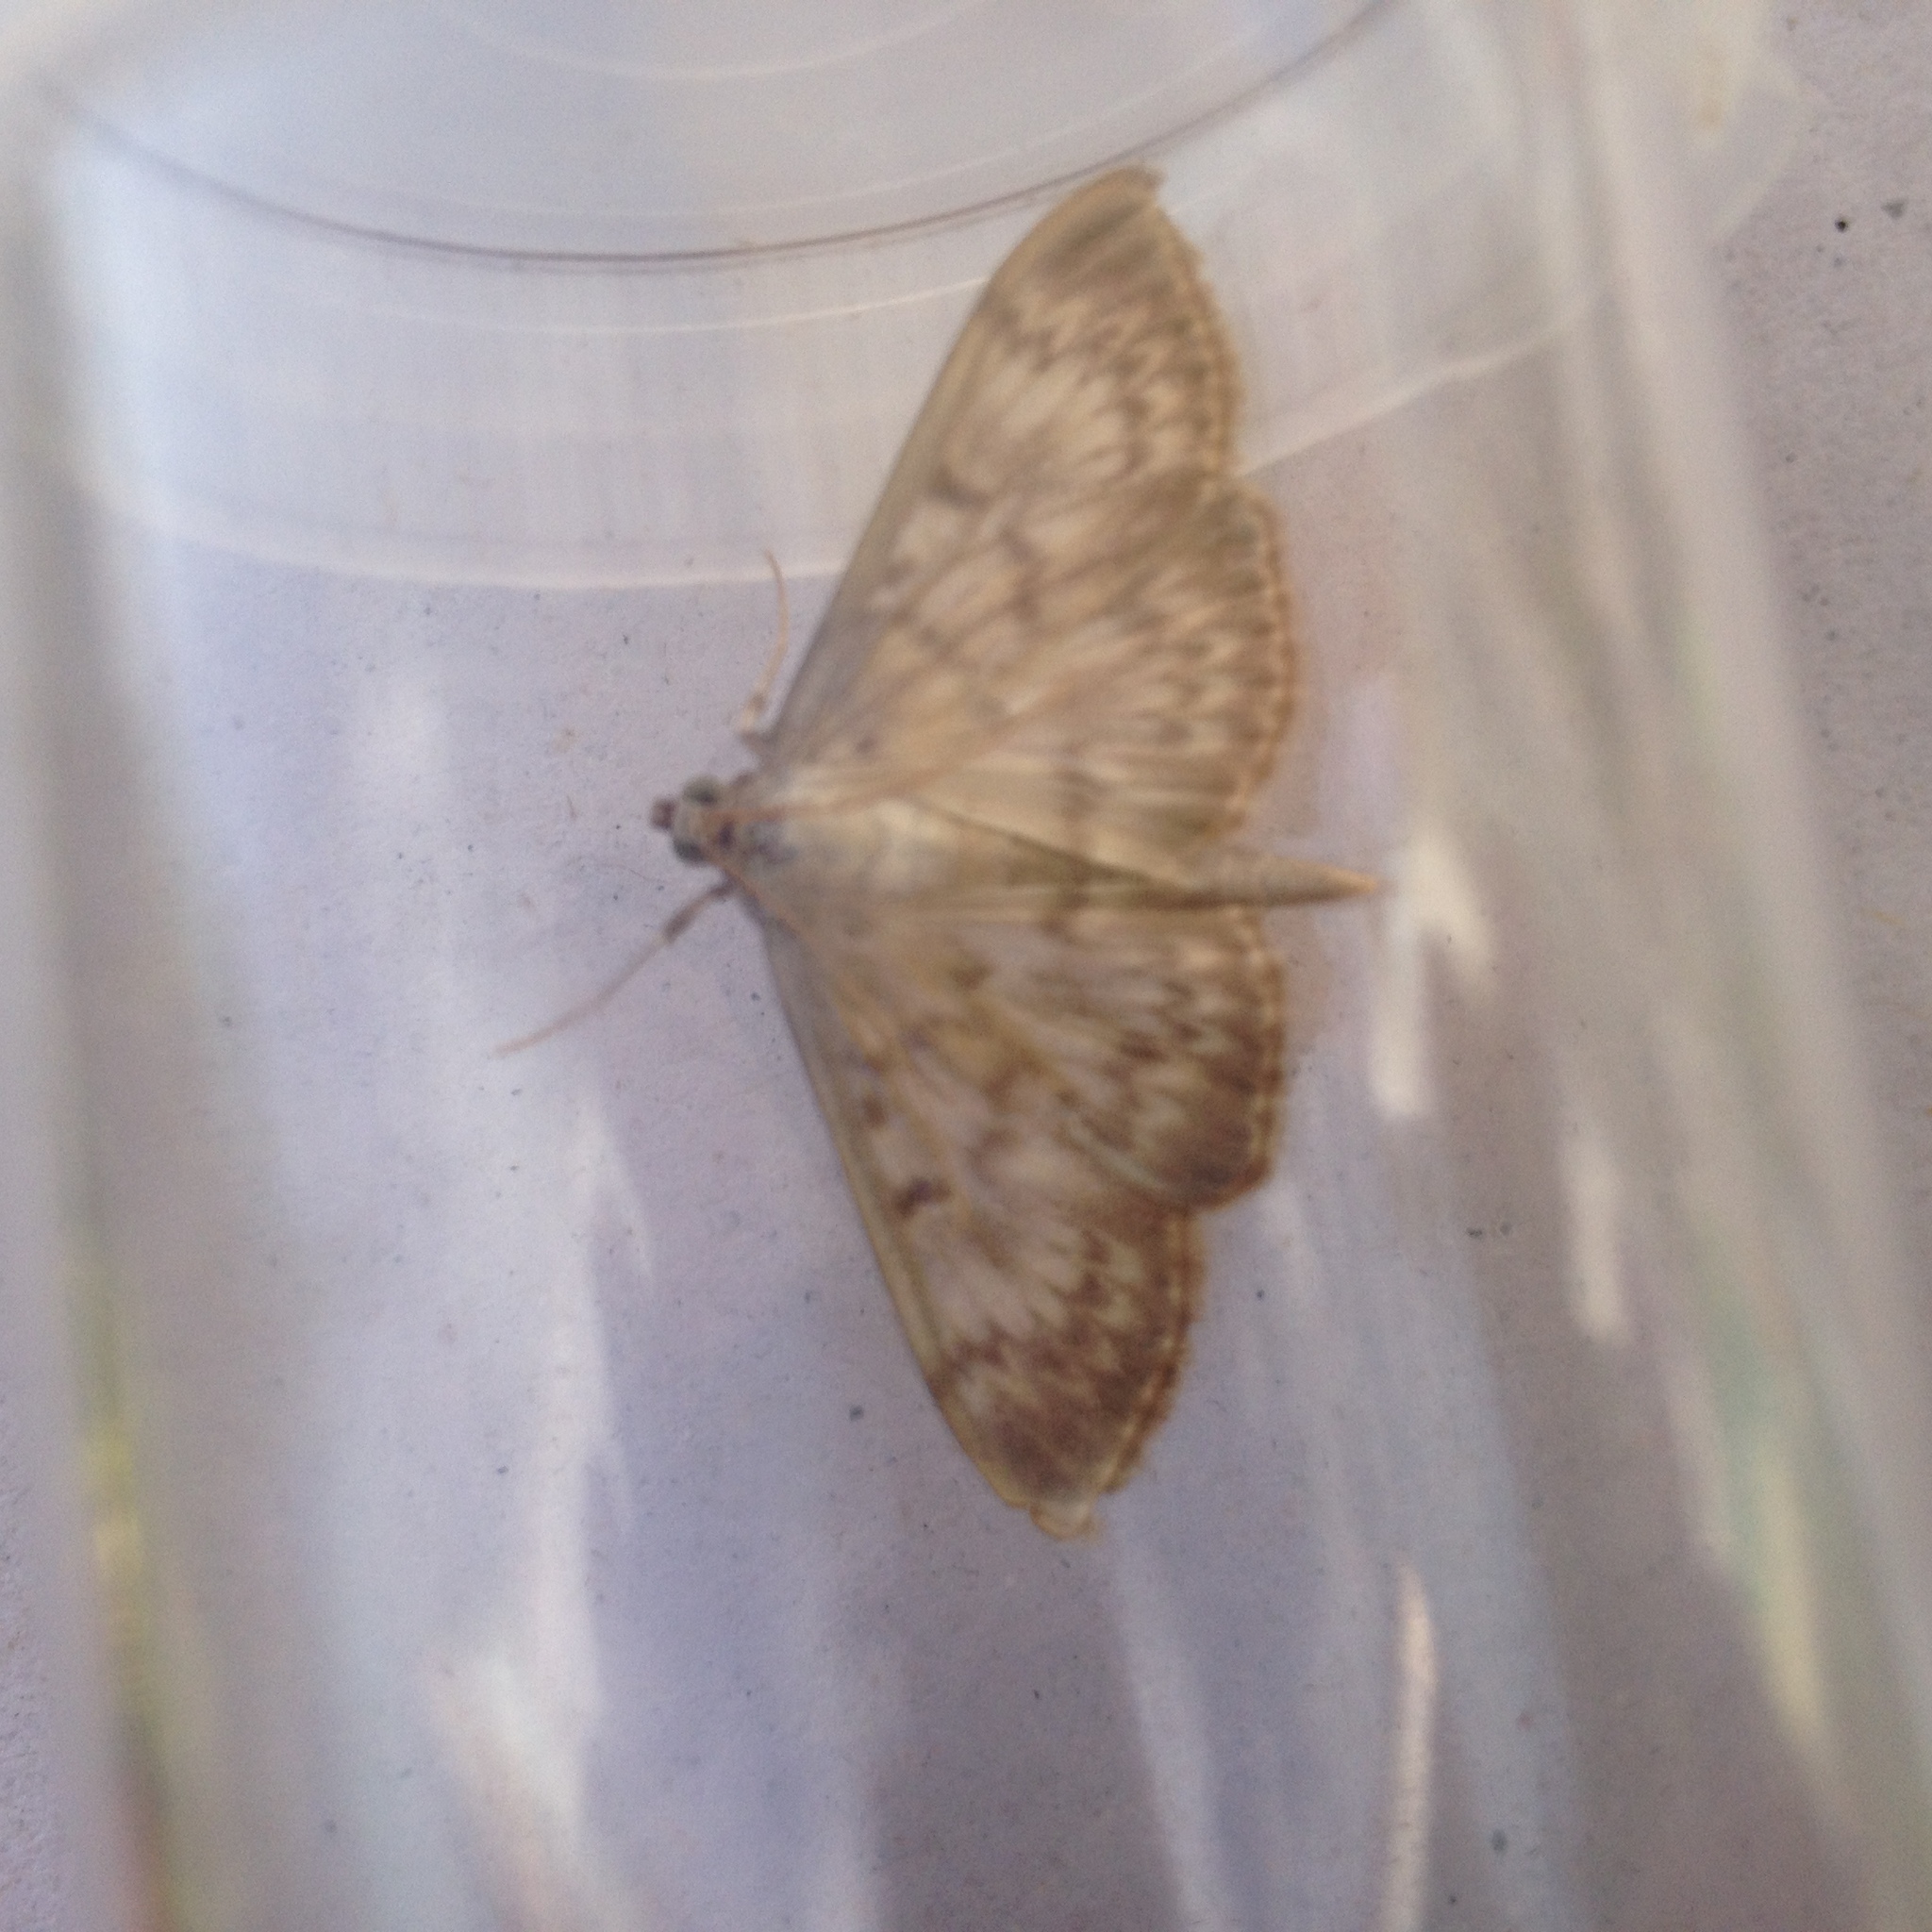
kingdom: Animalia
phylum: Arthropoda
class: Insecta
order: Lepidoptera
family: Crambidae
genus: Patania
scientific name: Patania ruralis
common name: Mother of pearl
